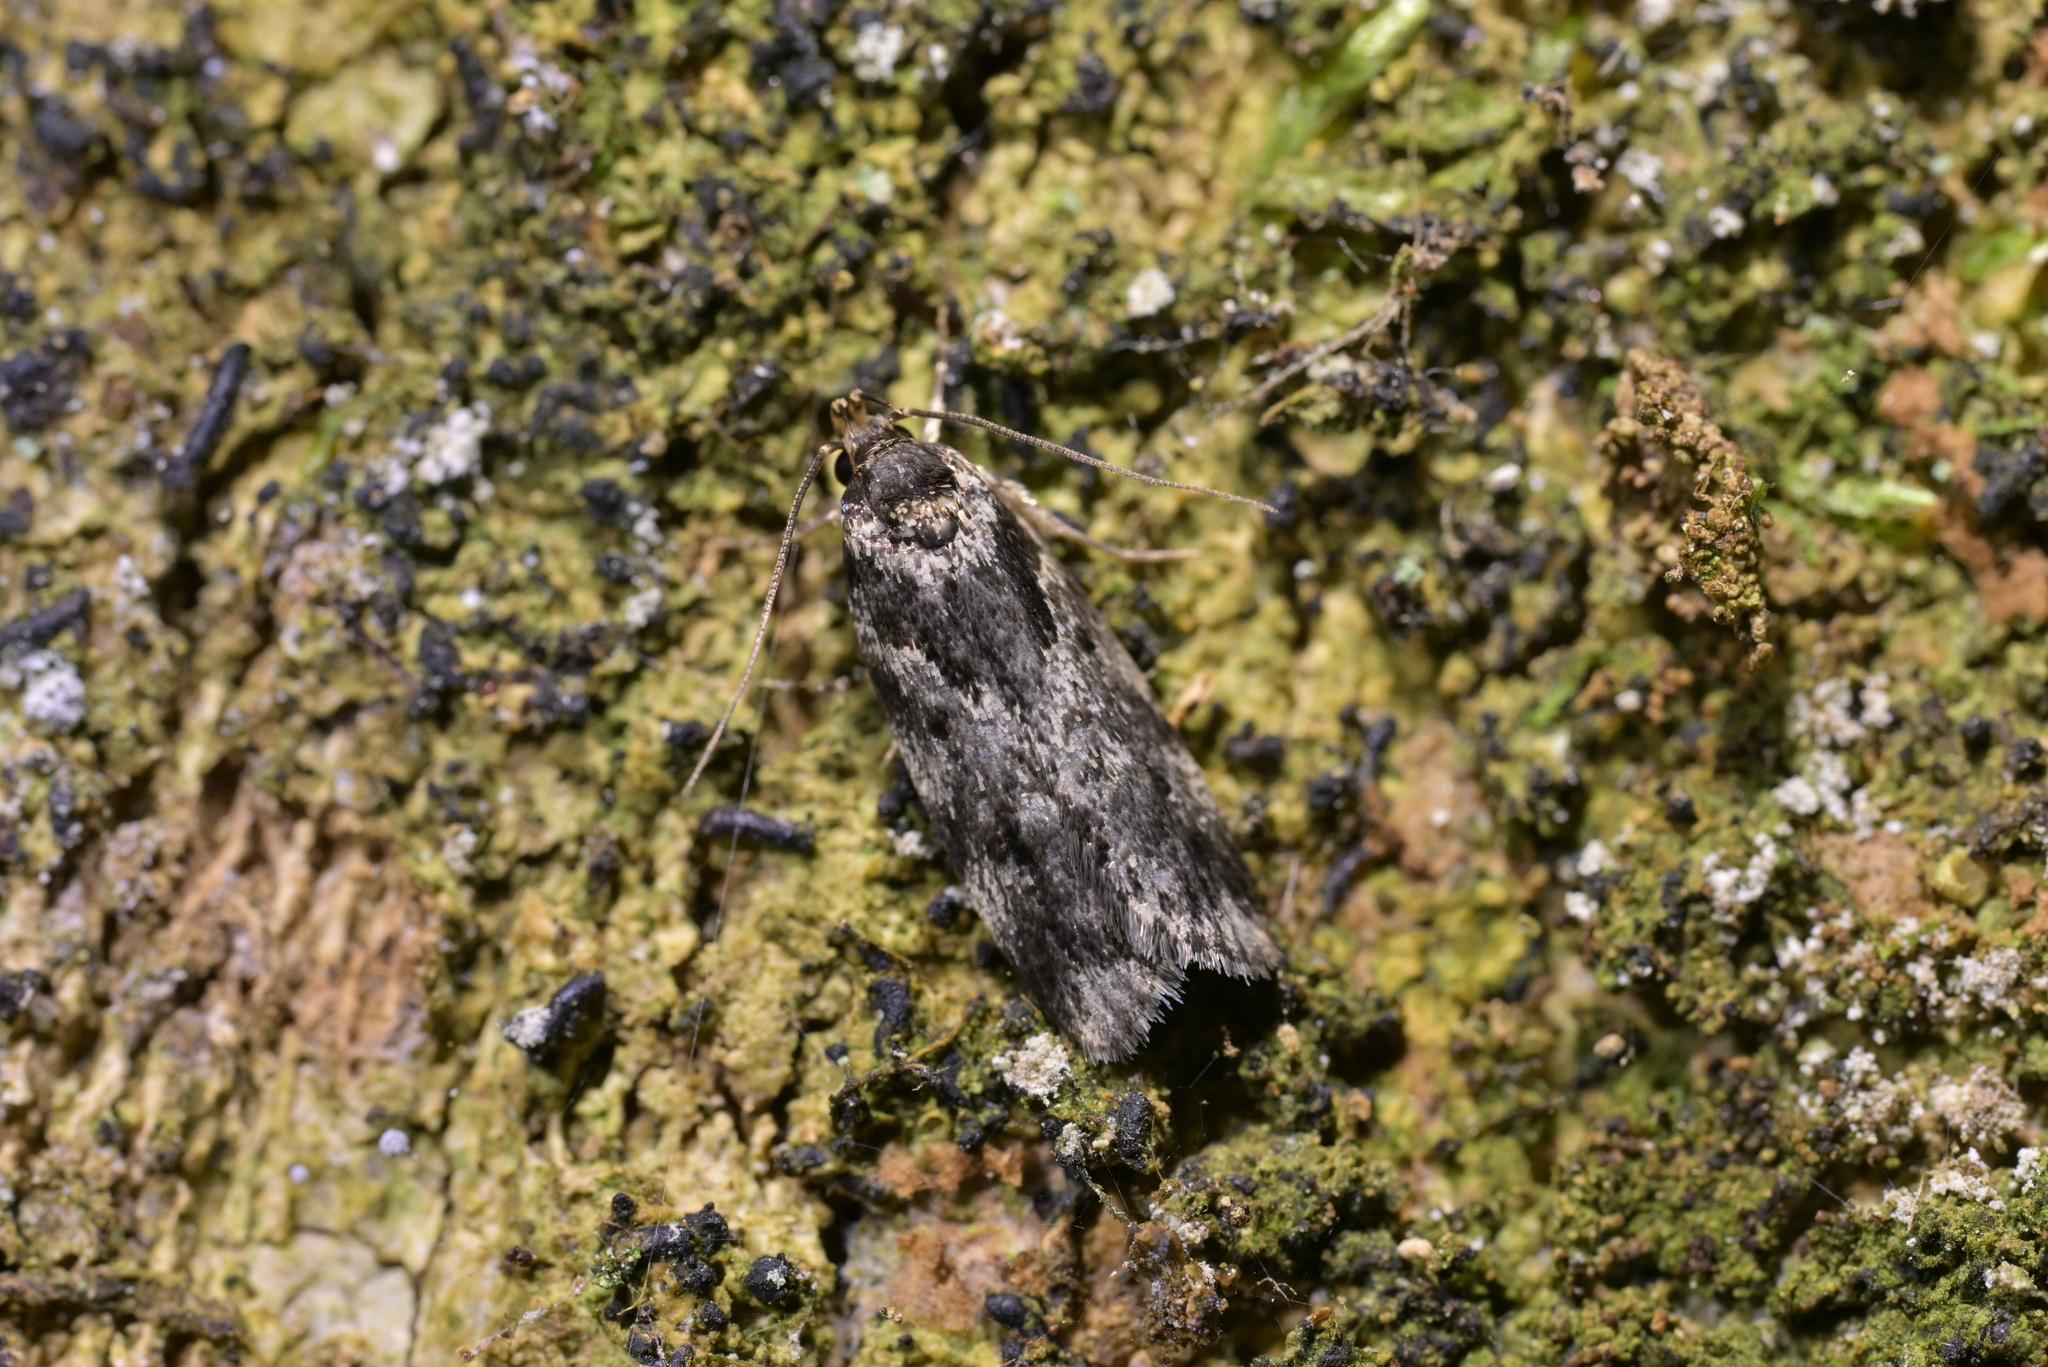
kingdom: Animalia
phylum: Arthropoda
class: Insecta
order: Lepidoptera
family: Oecophoridae
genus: Barea
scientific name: Barea
